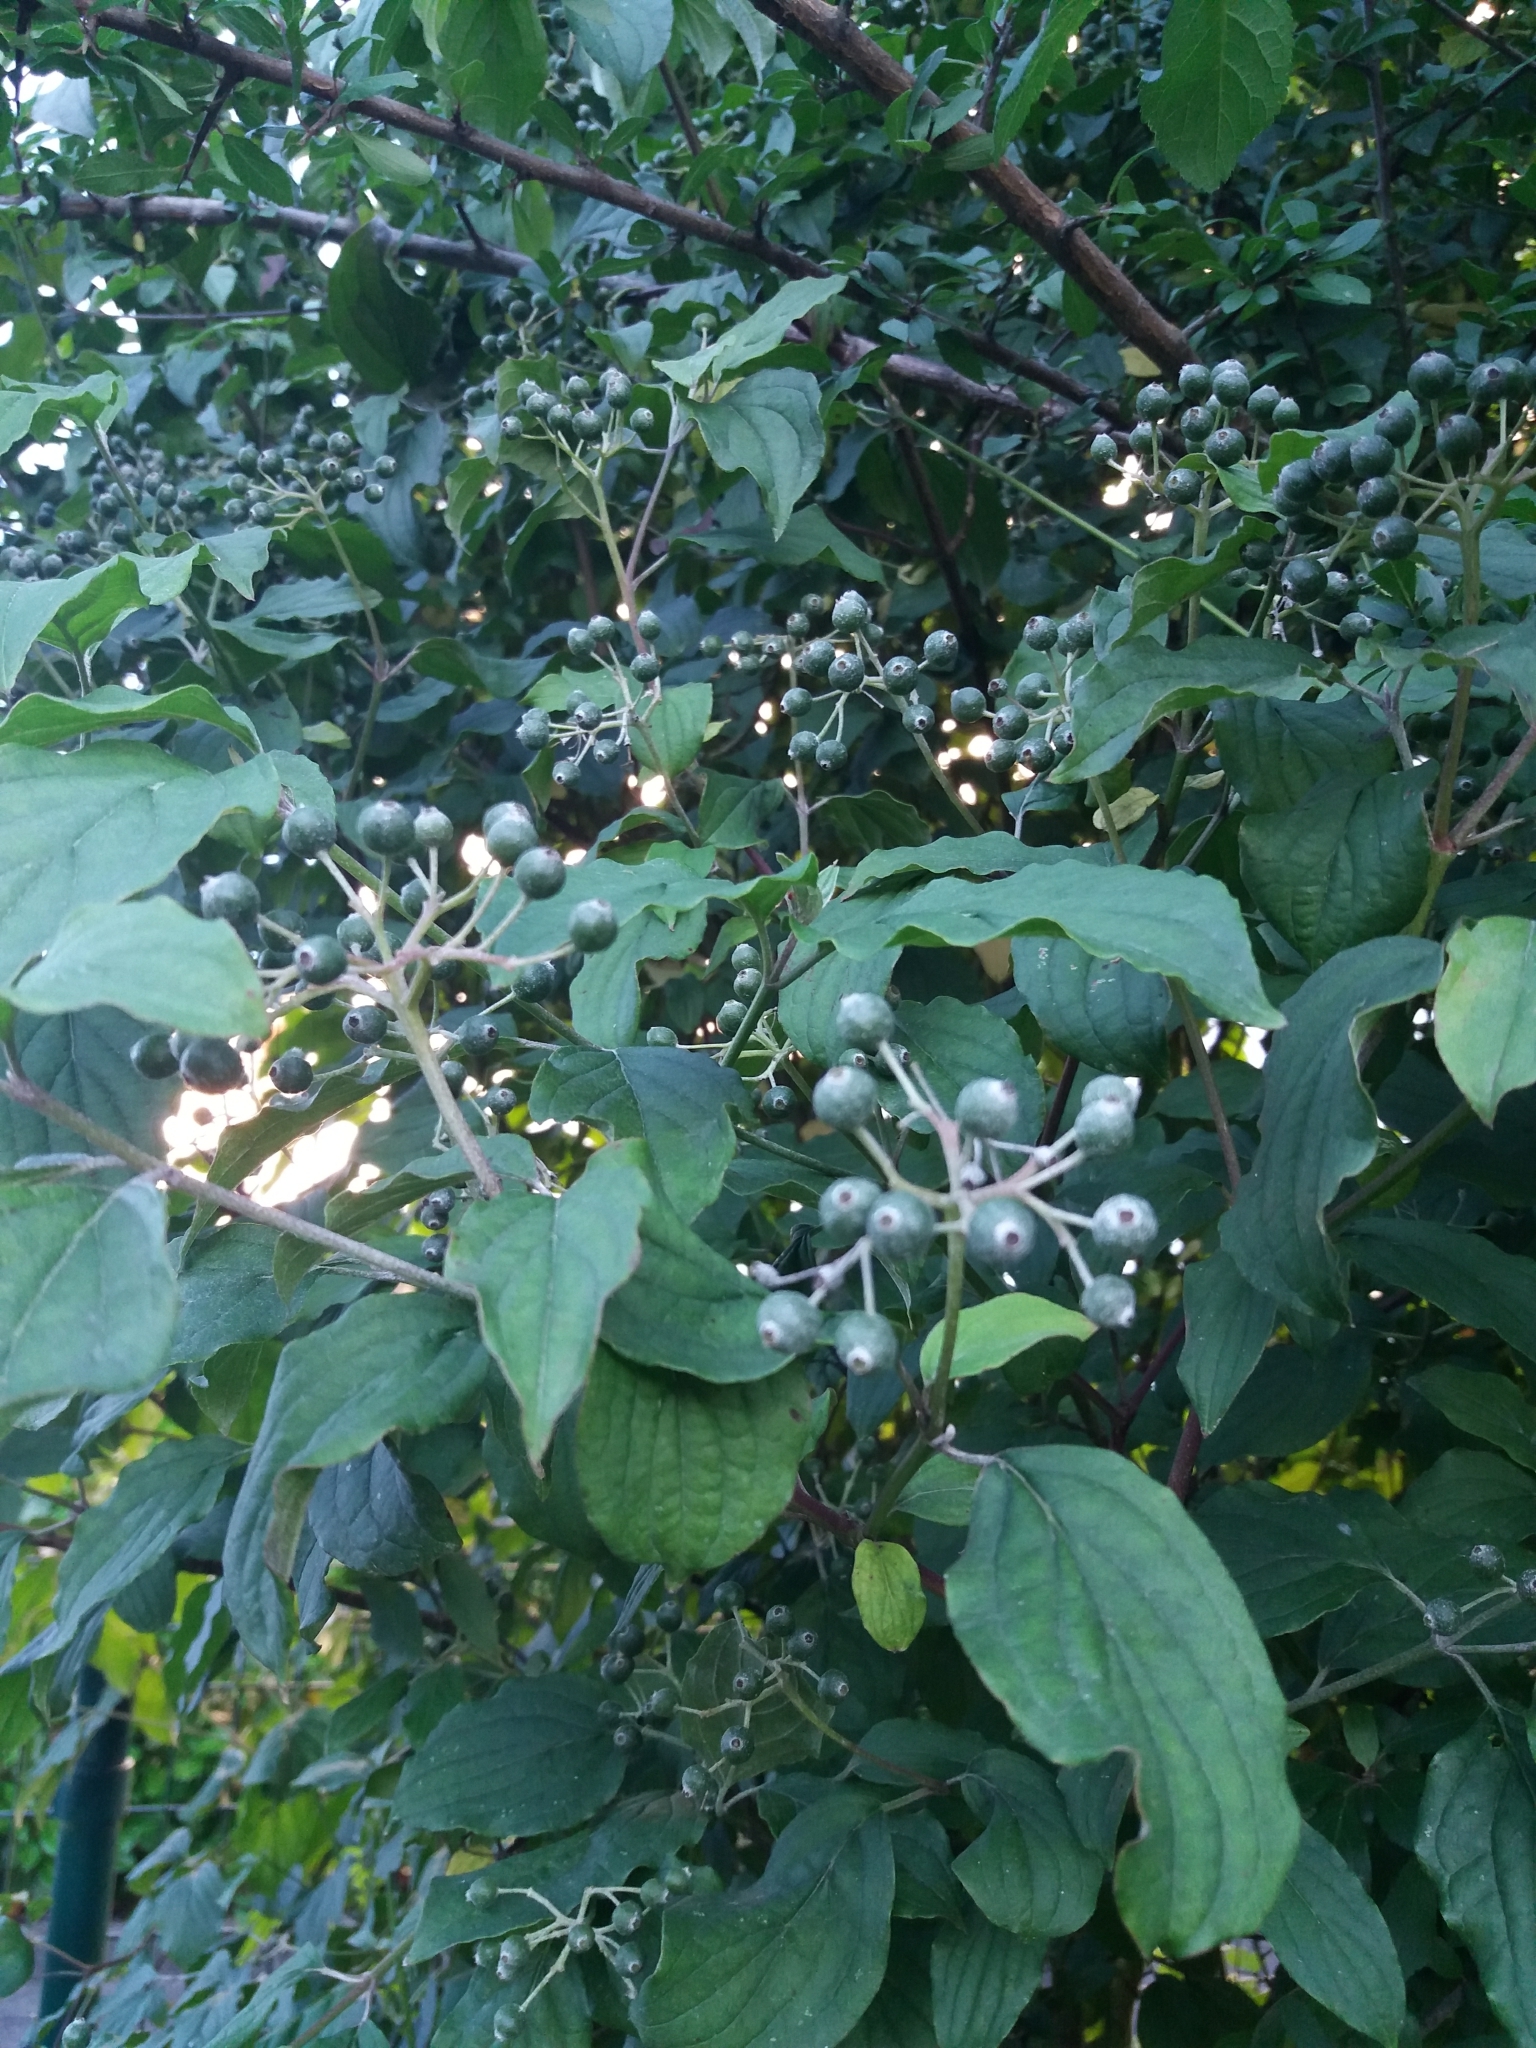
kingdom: Plantae
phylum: Tracheophyta
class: Magnoliopsida
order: Cornales
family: Cornaceae
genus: Cornus
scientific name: Cornus sanguinea
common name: Dogwood
